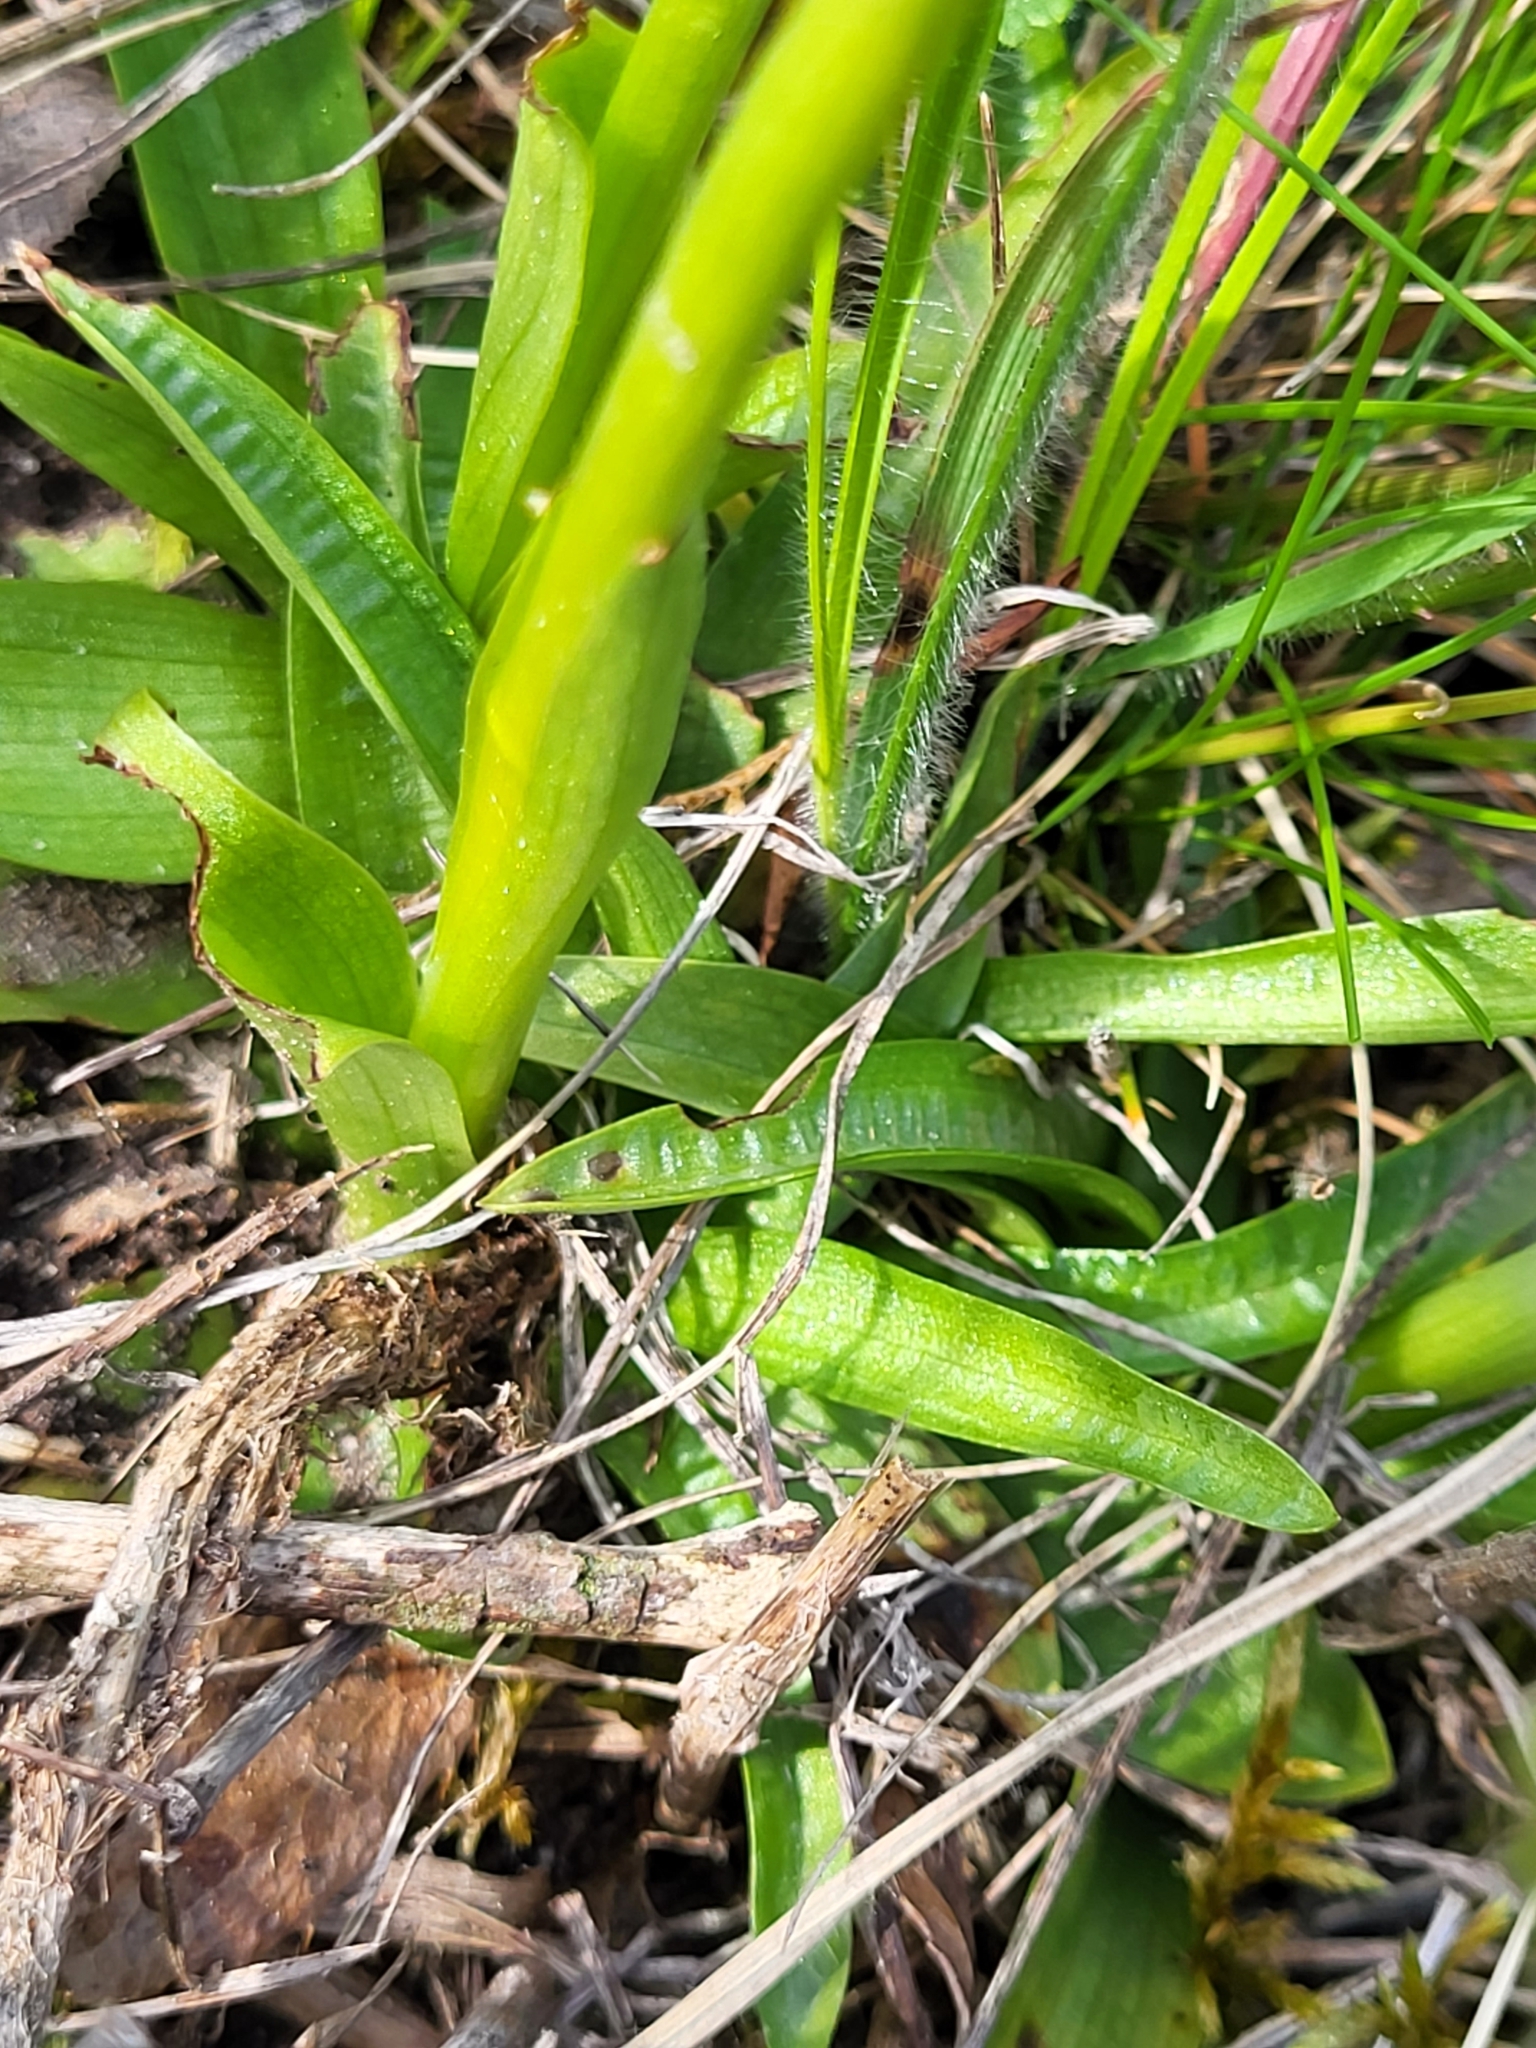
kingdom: Plantae
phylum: Tracheophyta
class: Liliopsida
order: Asparagales
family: Orchidaceae
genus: Anacamptis
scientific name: Anacamptis morio
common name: Green-winged orchid
